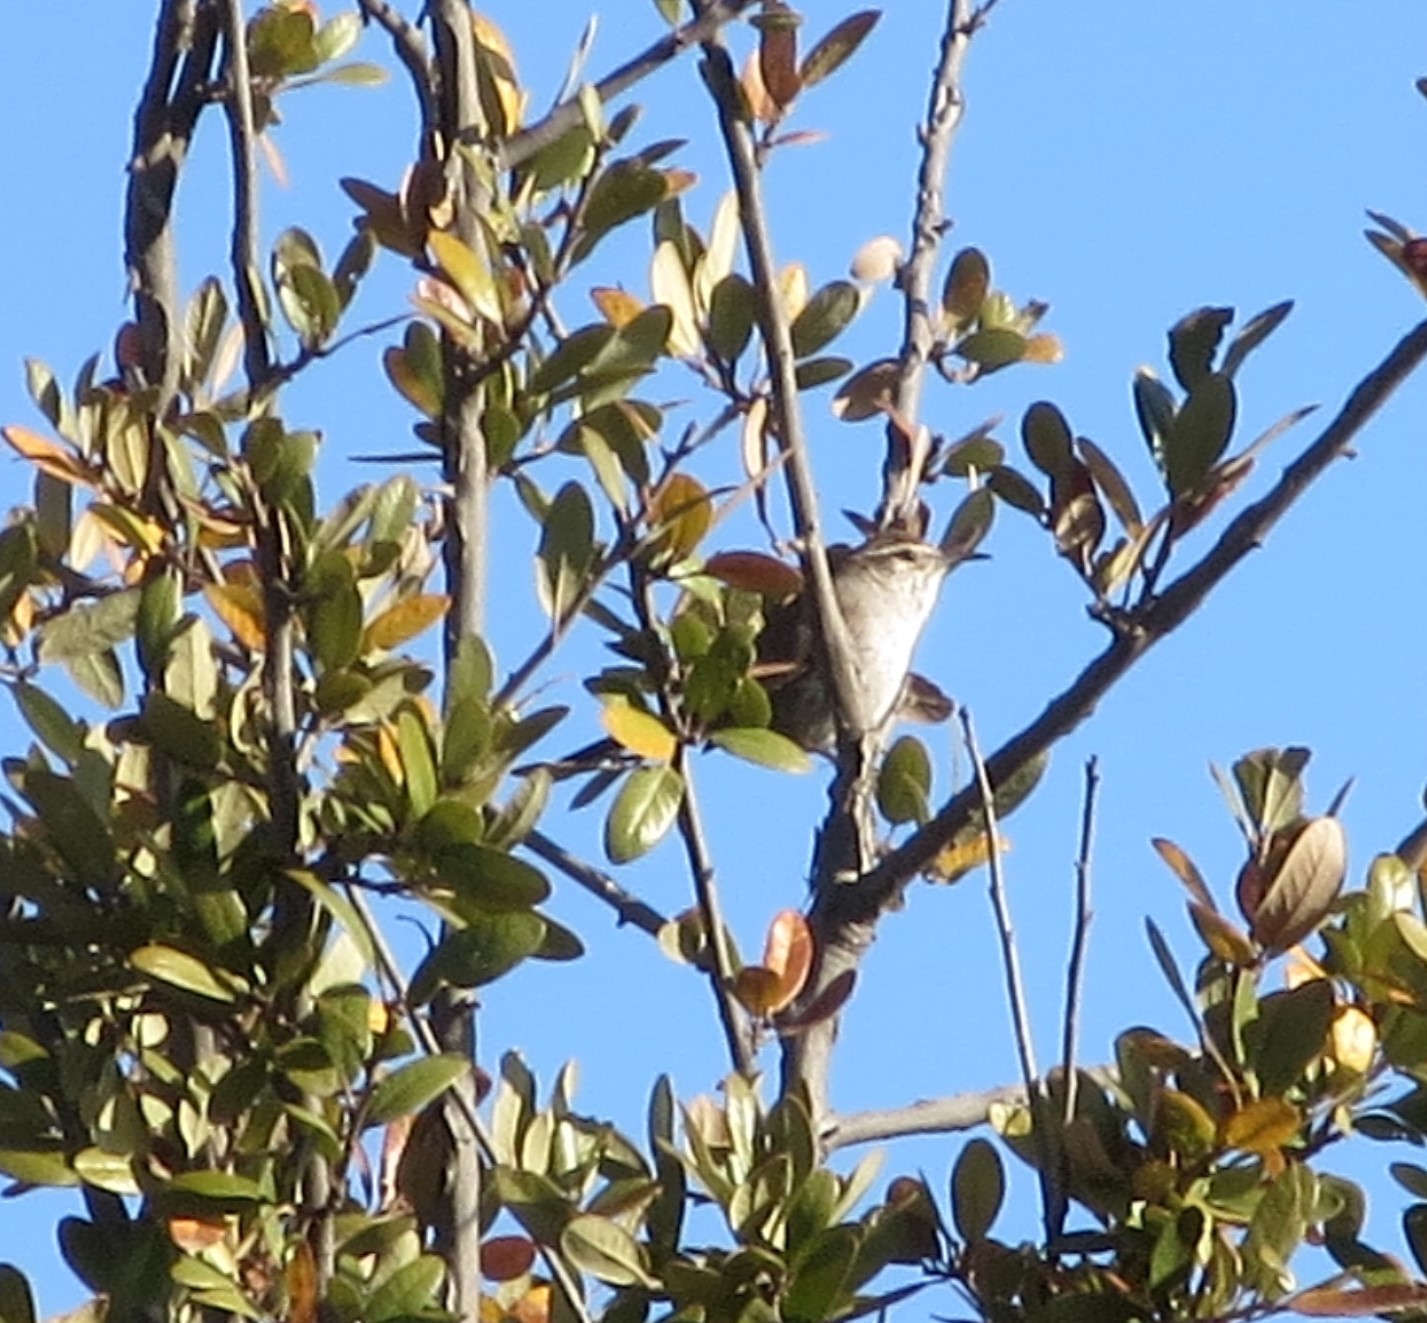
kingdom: Animalia
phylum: Chordata
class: Aves
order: Passeriformes
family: Troglodytidae
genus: Thryomanes
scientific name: Thryomanes bewickii
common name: Bewick's wren
